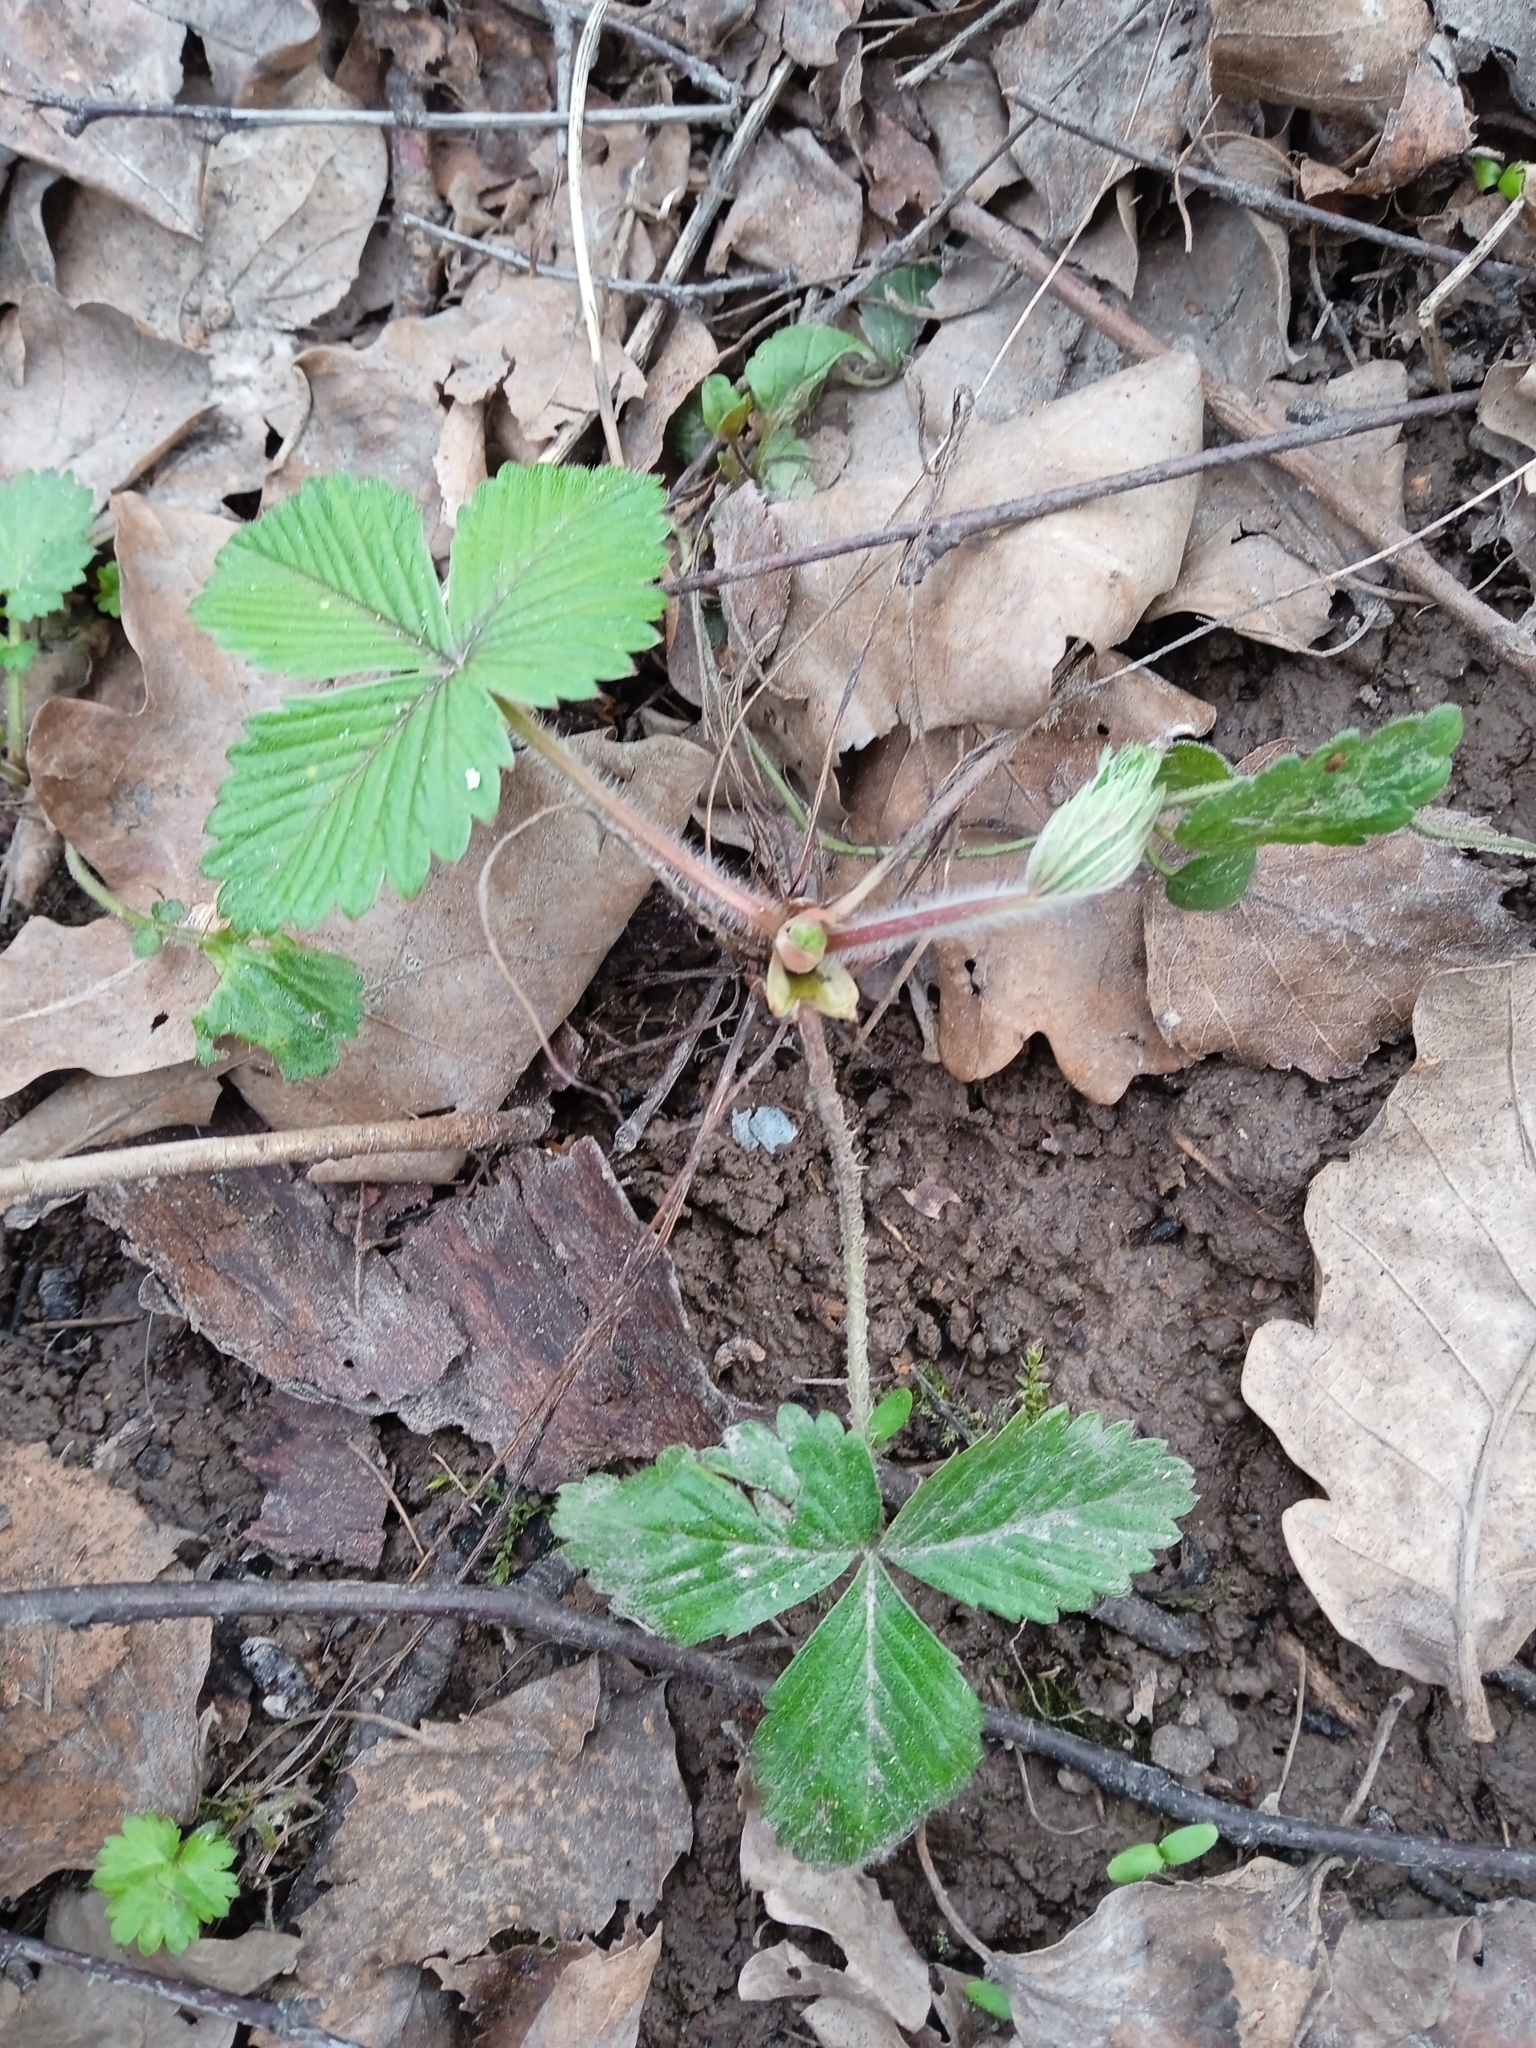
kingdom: Plantae
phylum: Tracheophyta
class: Magnoliopsida
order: Rosales
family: Rosaceae
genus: Fragaria
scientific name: Fragaria vesca
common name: Wild strawberry
